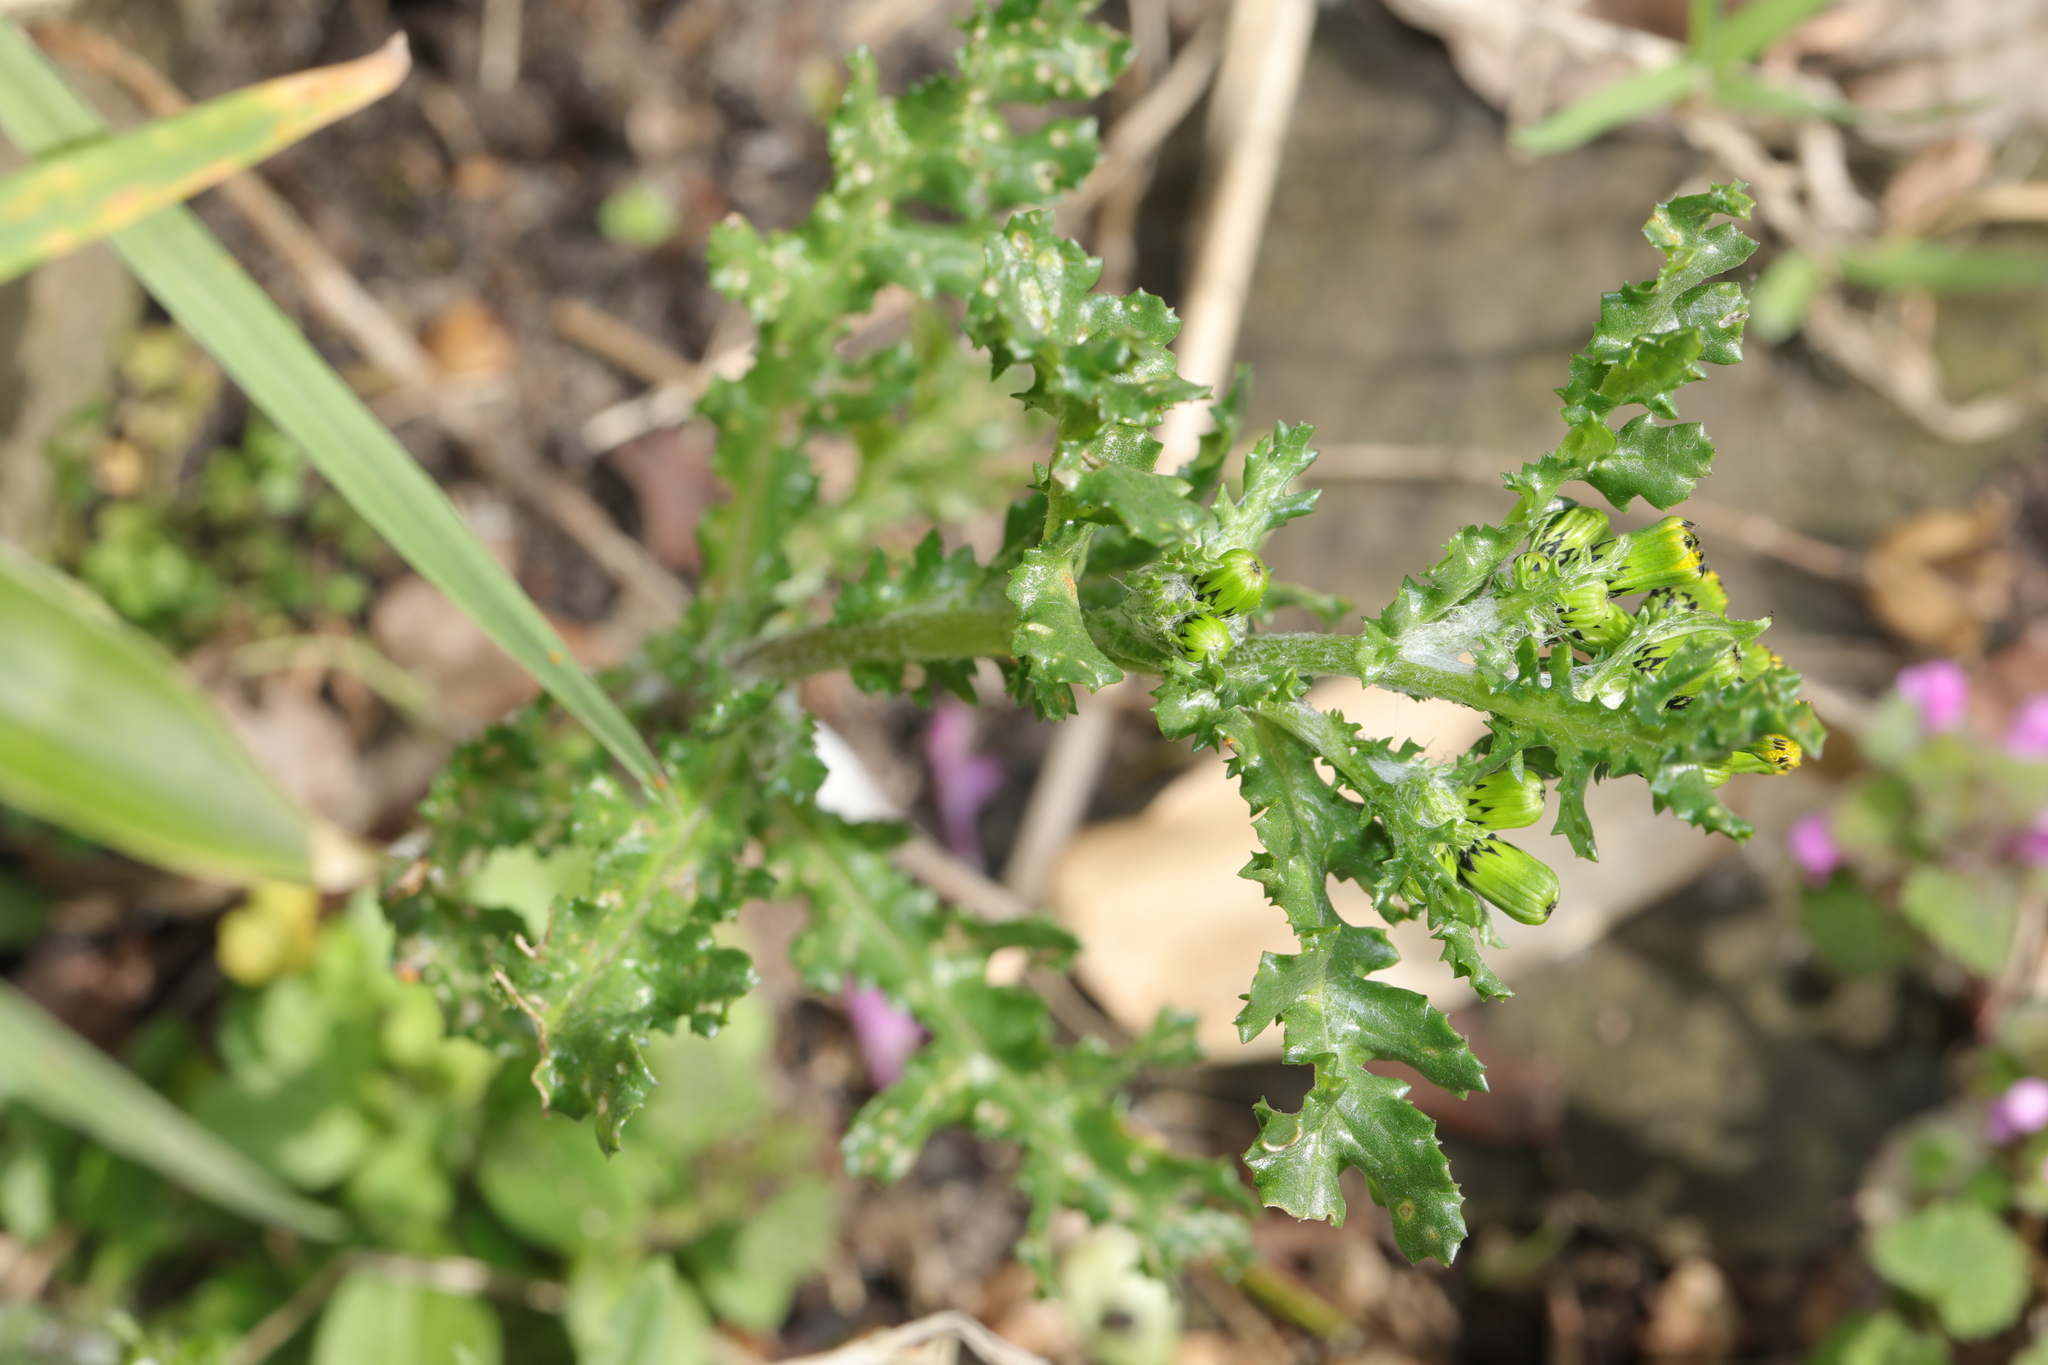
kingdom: Plantae
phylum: Tracheophyta
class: Magnoliopsida
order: Asterales
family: Asteraceae
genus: Senecio
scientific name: Senecio vulgaris
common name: Old-man-in-the-spring
